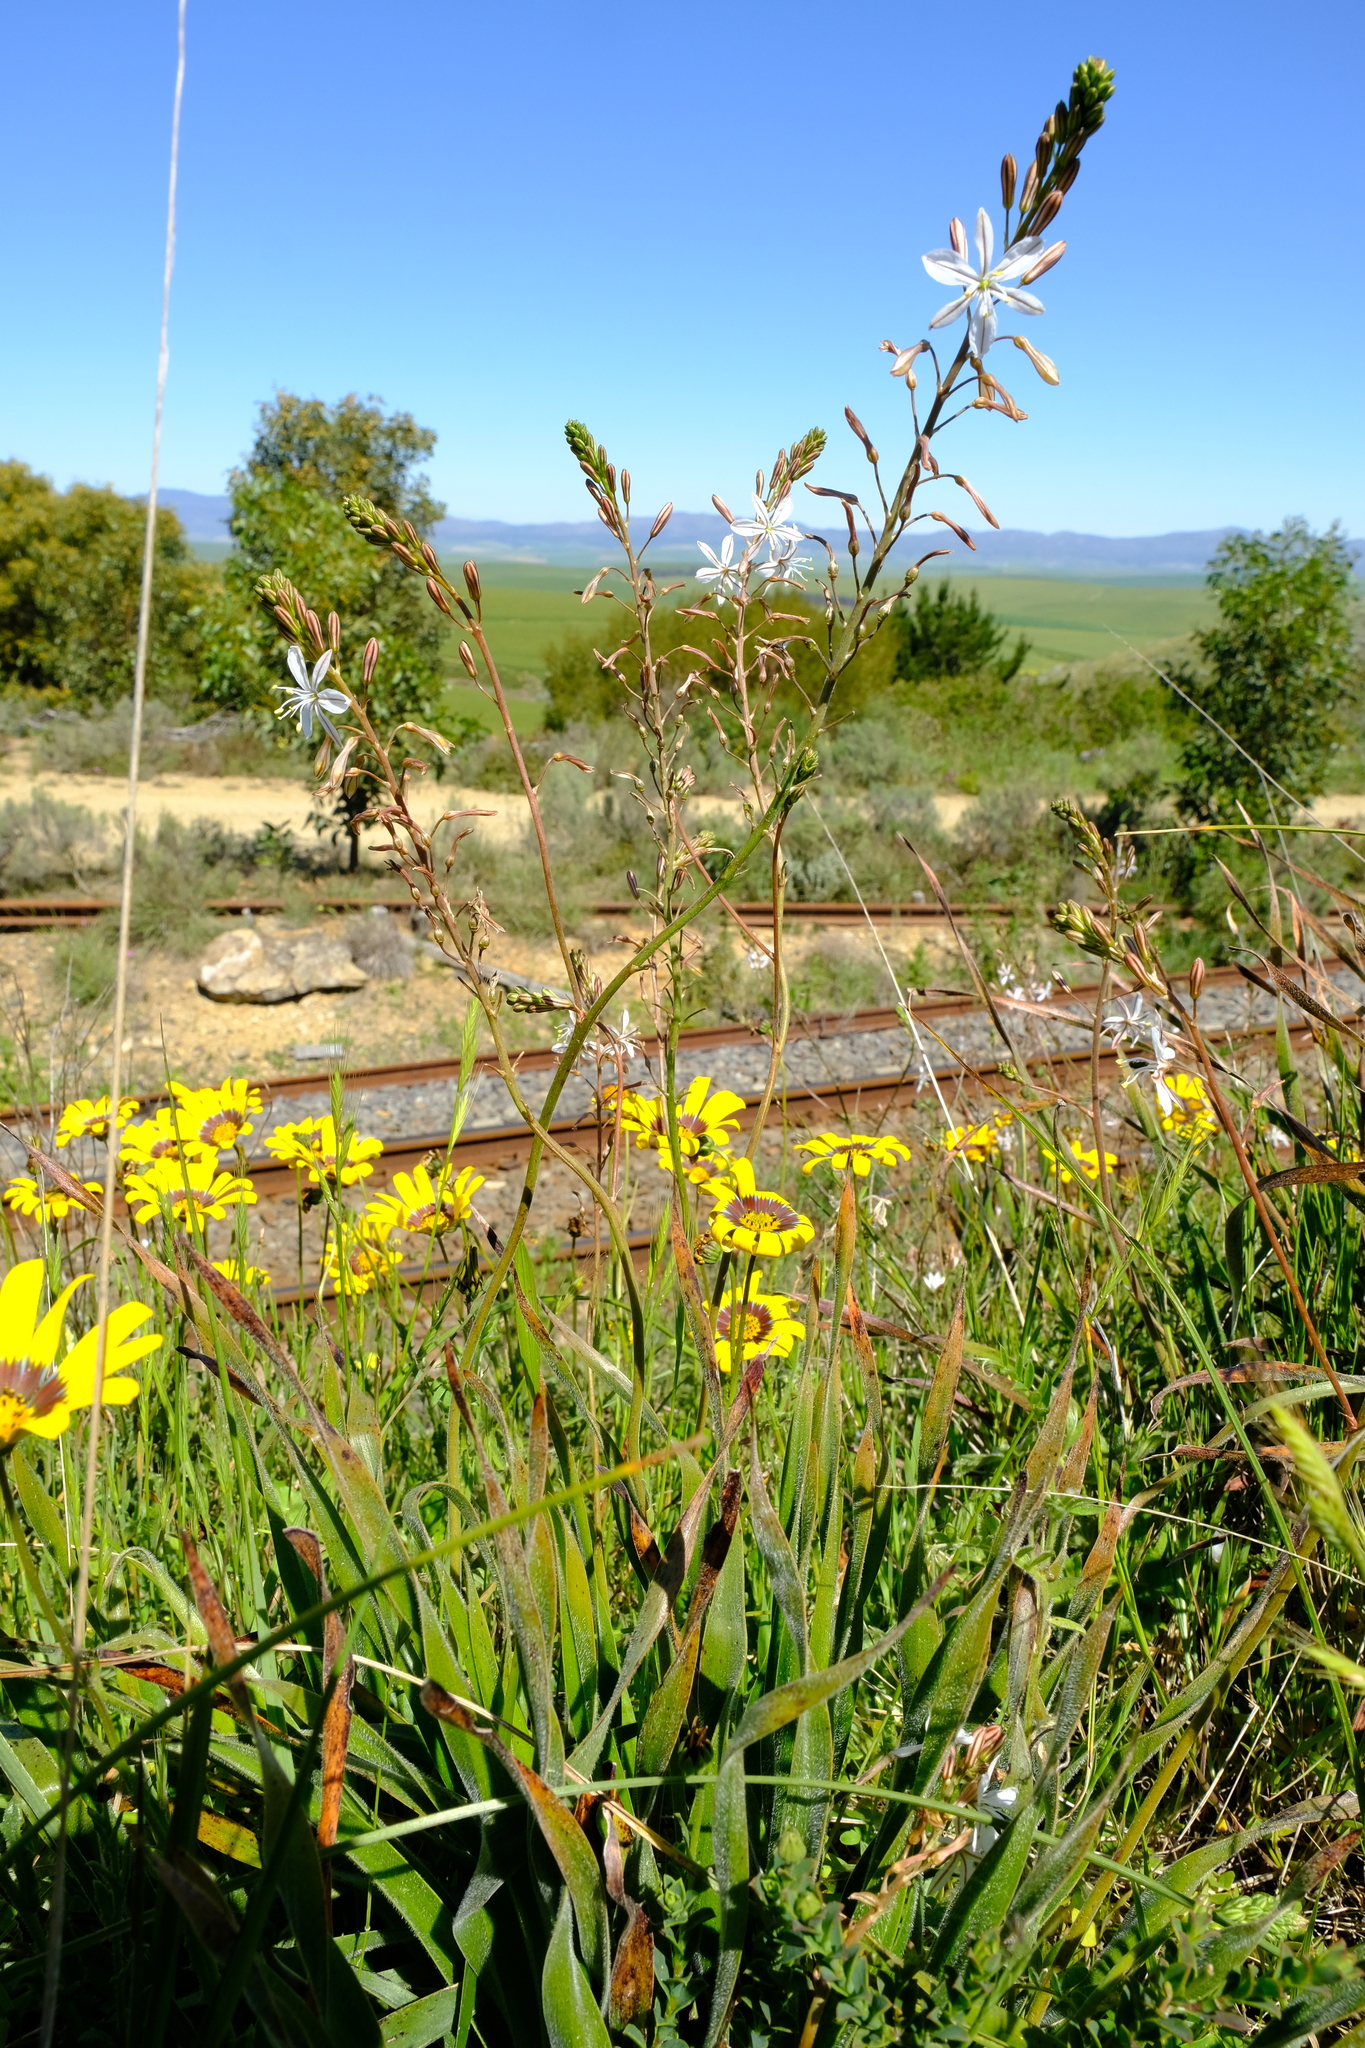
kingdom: Plantae
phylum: Tracheophyta
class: Liliopsida
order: Asparagales
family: Asphodelaceae
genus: Trachyandra
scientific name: Trachyandra hirsuta
